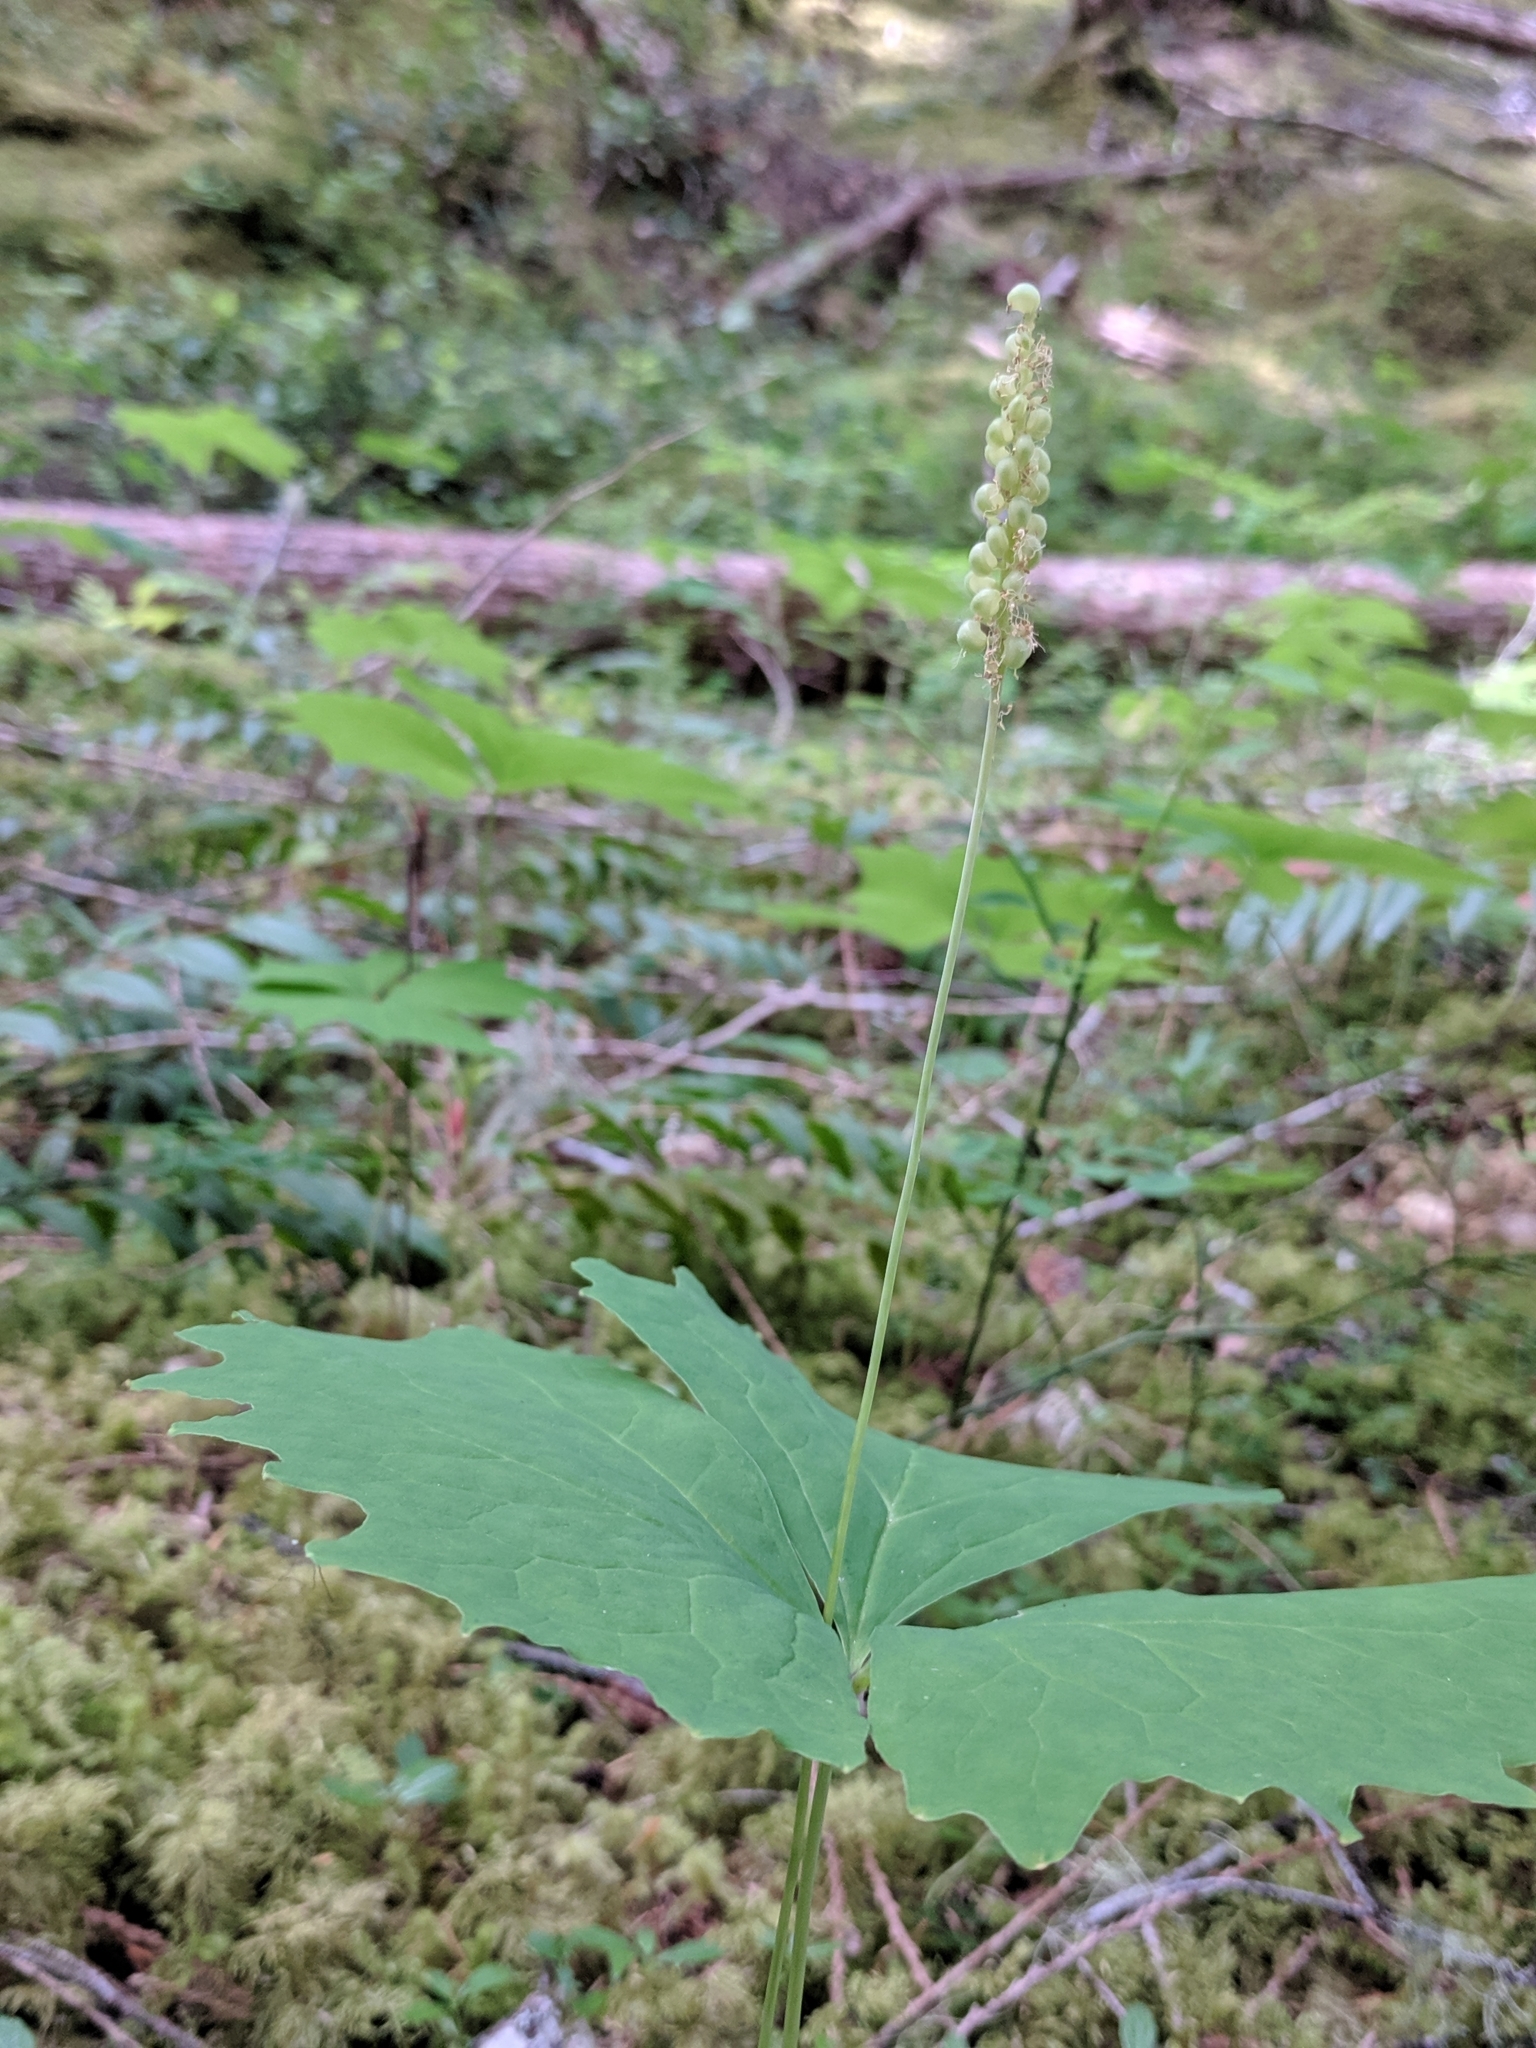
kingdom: Plantae
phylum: Tracheophyta
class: Magnoliopsida
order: Ranunculales
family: Berberidaceae
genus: Achlys
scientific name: Achlys triphylla
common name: Vanilla-leaf
